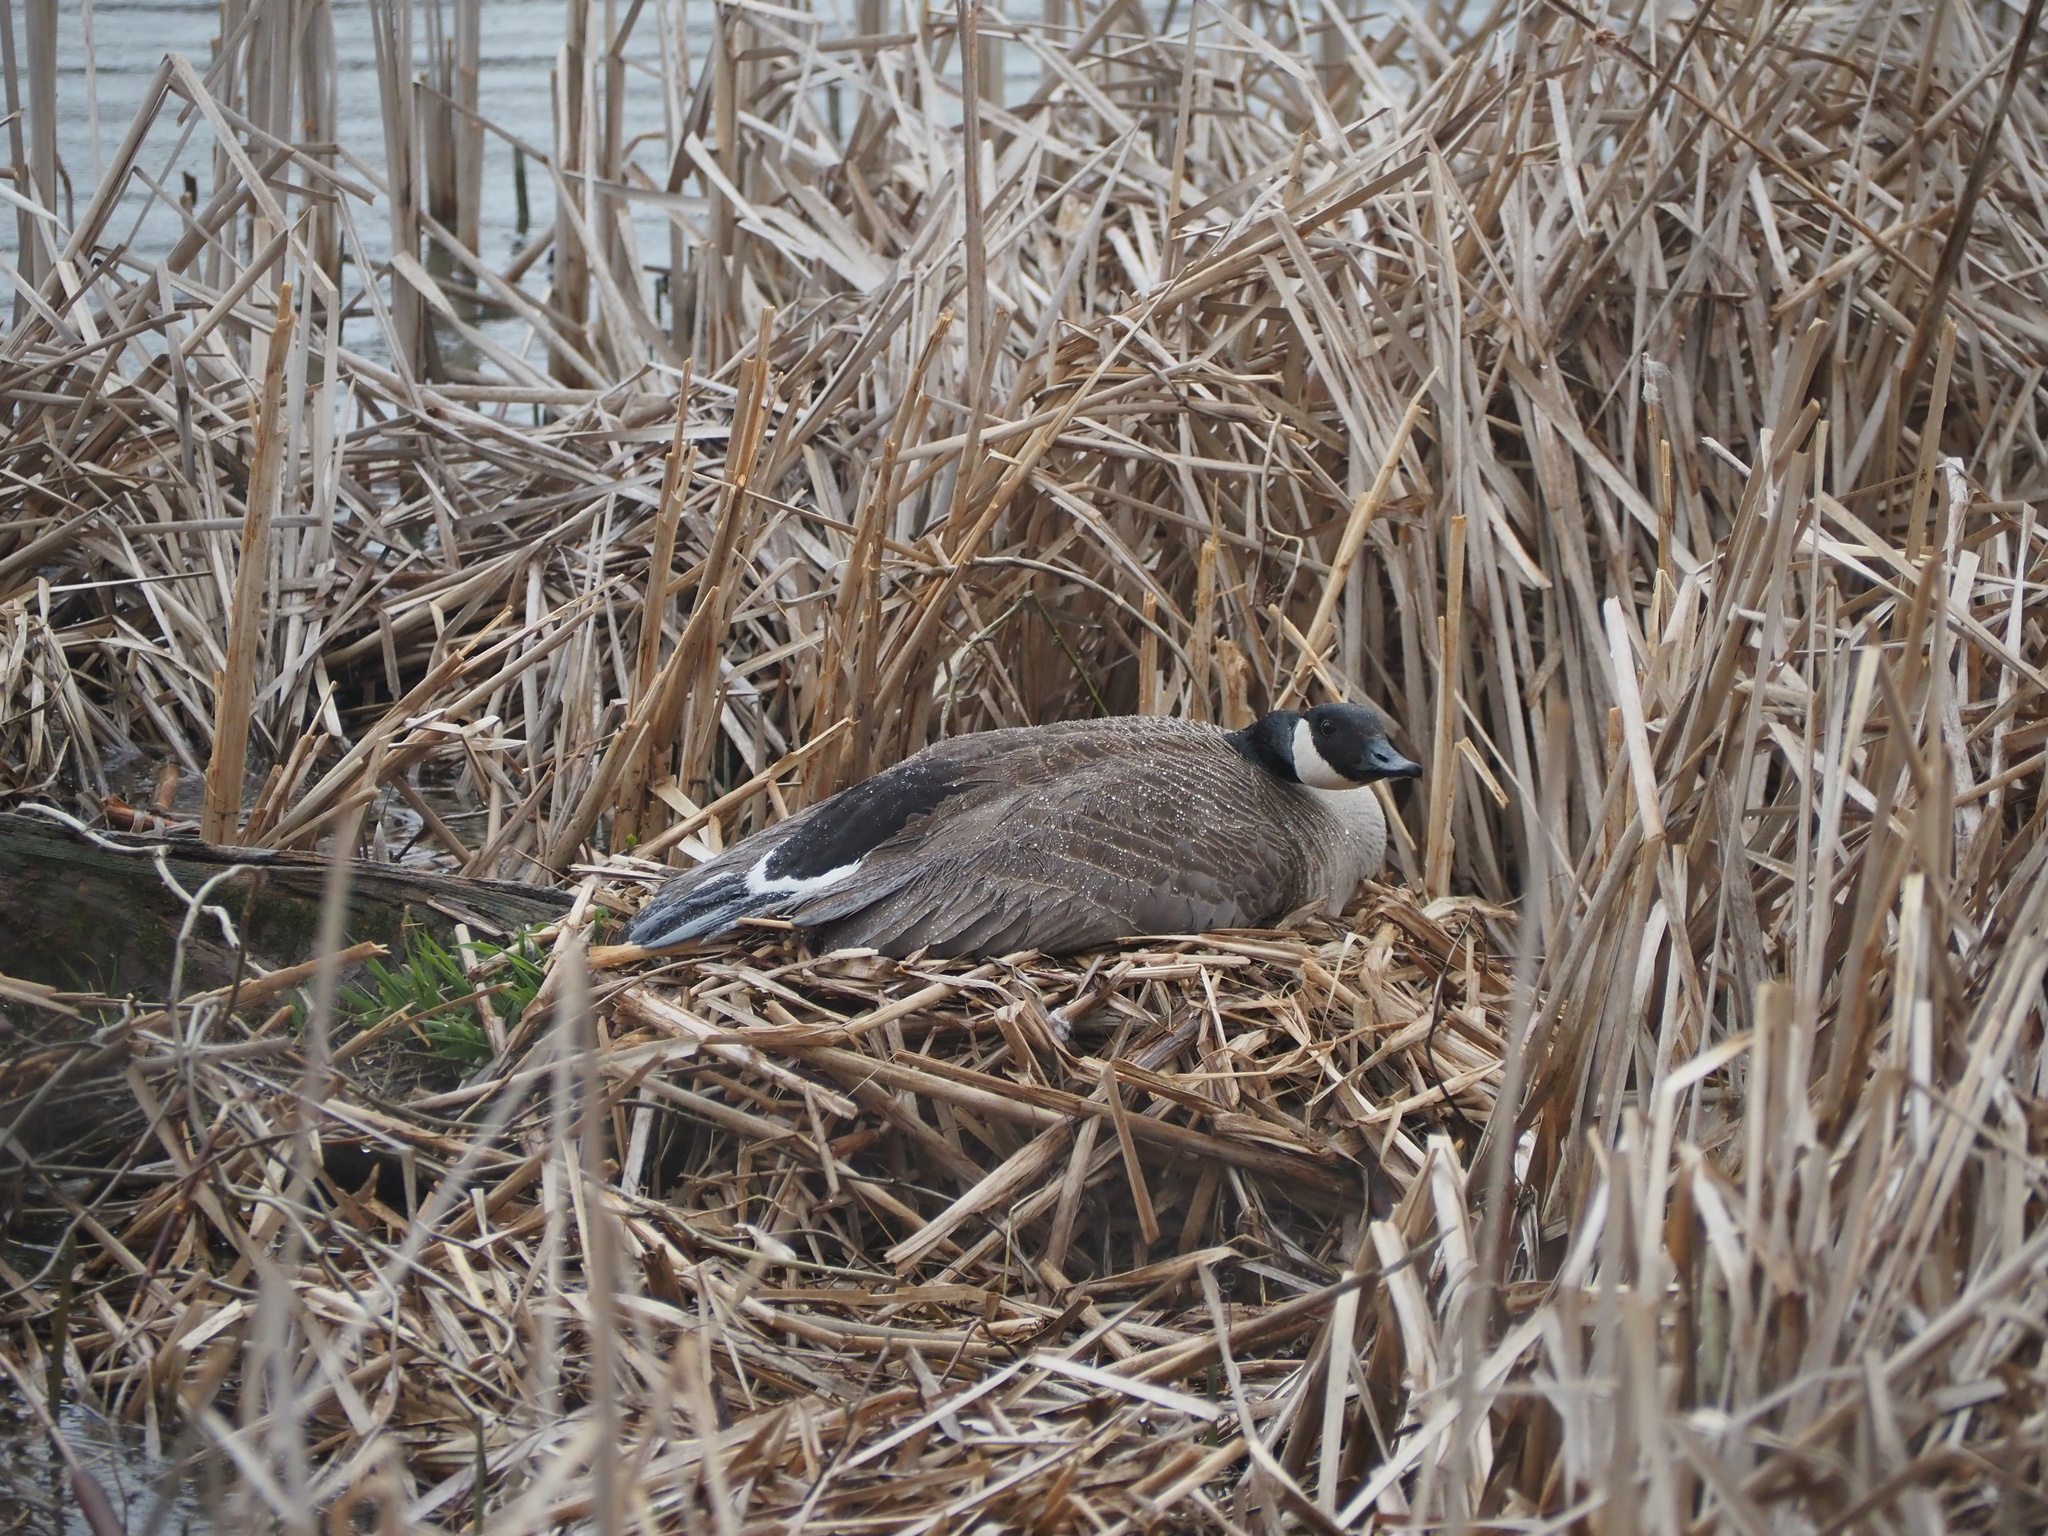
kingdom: Animalia
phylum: Chordata
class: Aves
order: Anseriformes
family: Anatidae
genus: Branta
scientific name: Branta canadensis
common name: Canada goose
